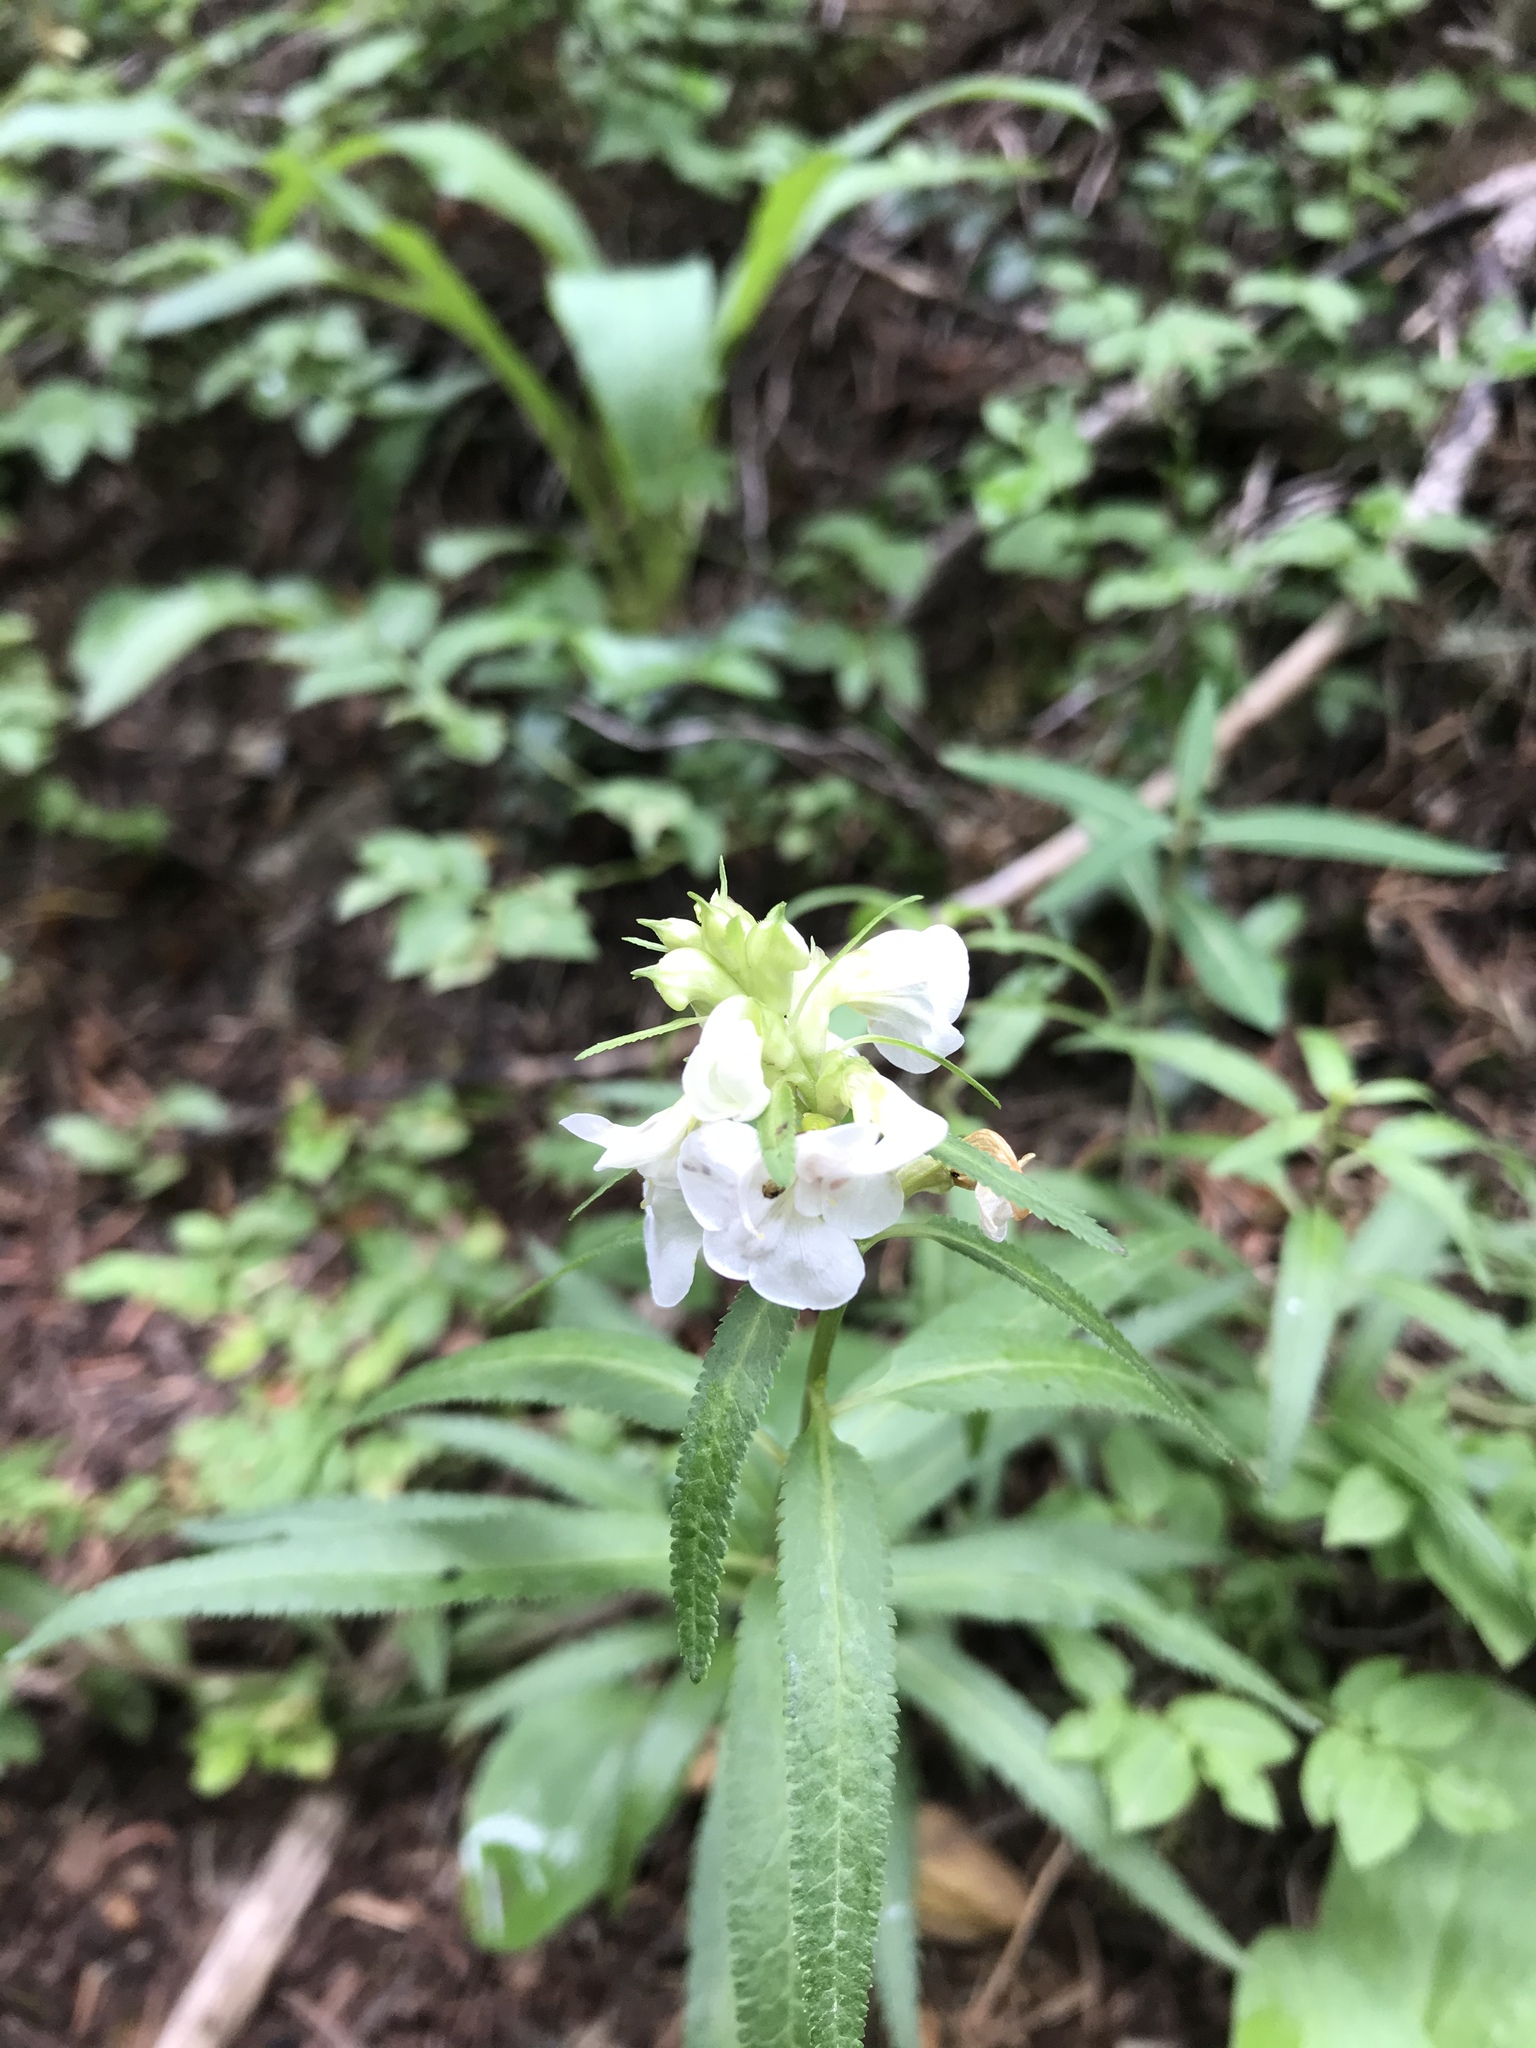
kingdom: Plantae
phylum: Tracheophyta
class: Magnoliopsida
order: Lamiales
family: Orobanchaceae
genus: Pedicularis
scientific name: Pedicularis racemosa
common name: Leafy lousewort
